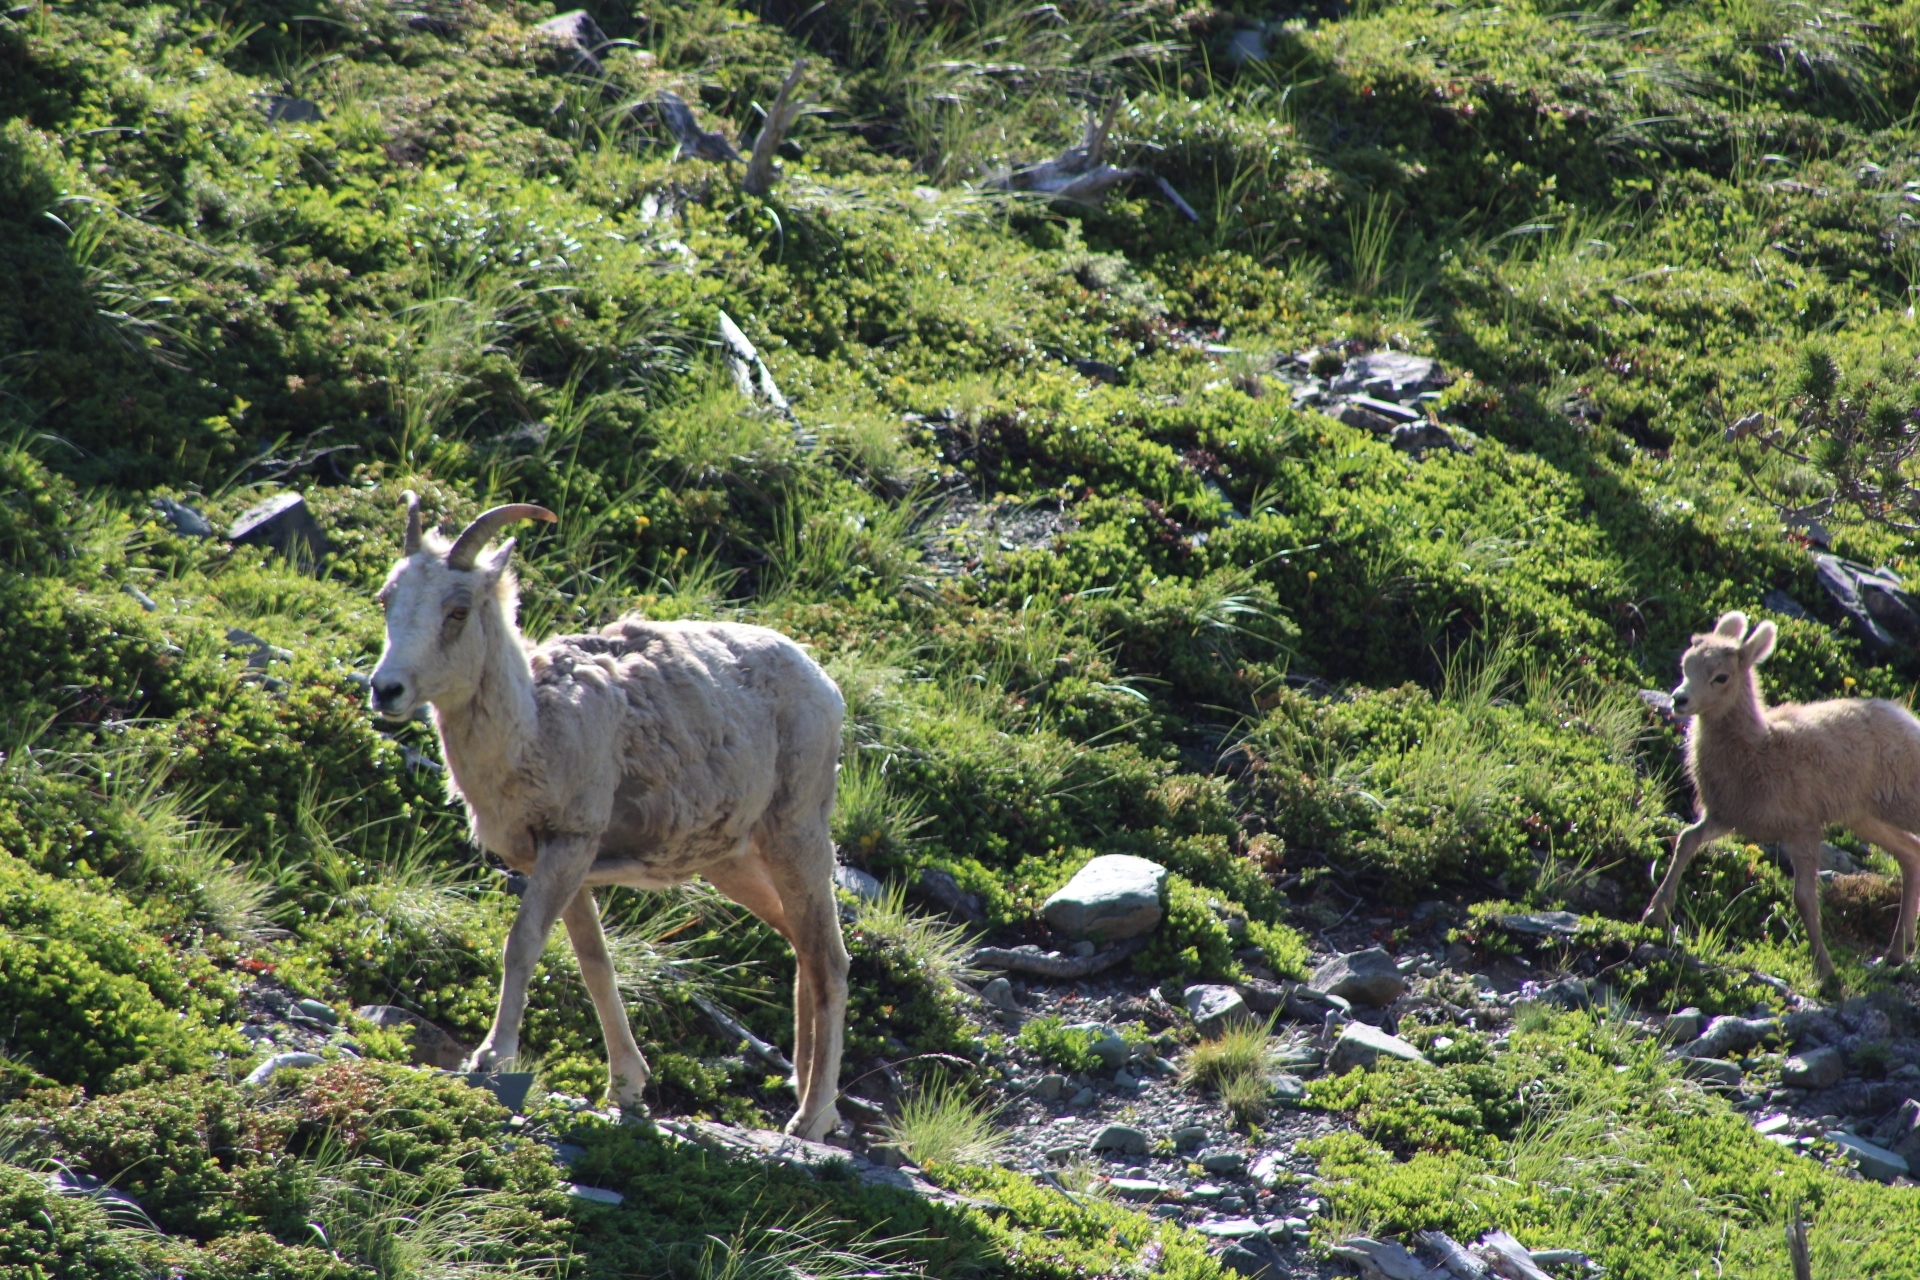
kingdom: Animalia
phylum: Chordata
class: Mammalia
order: Artiodactyla
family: Bovidae
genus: Ovis
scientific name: Ovis canadensis
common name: Bighorn sheep
